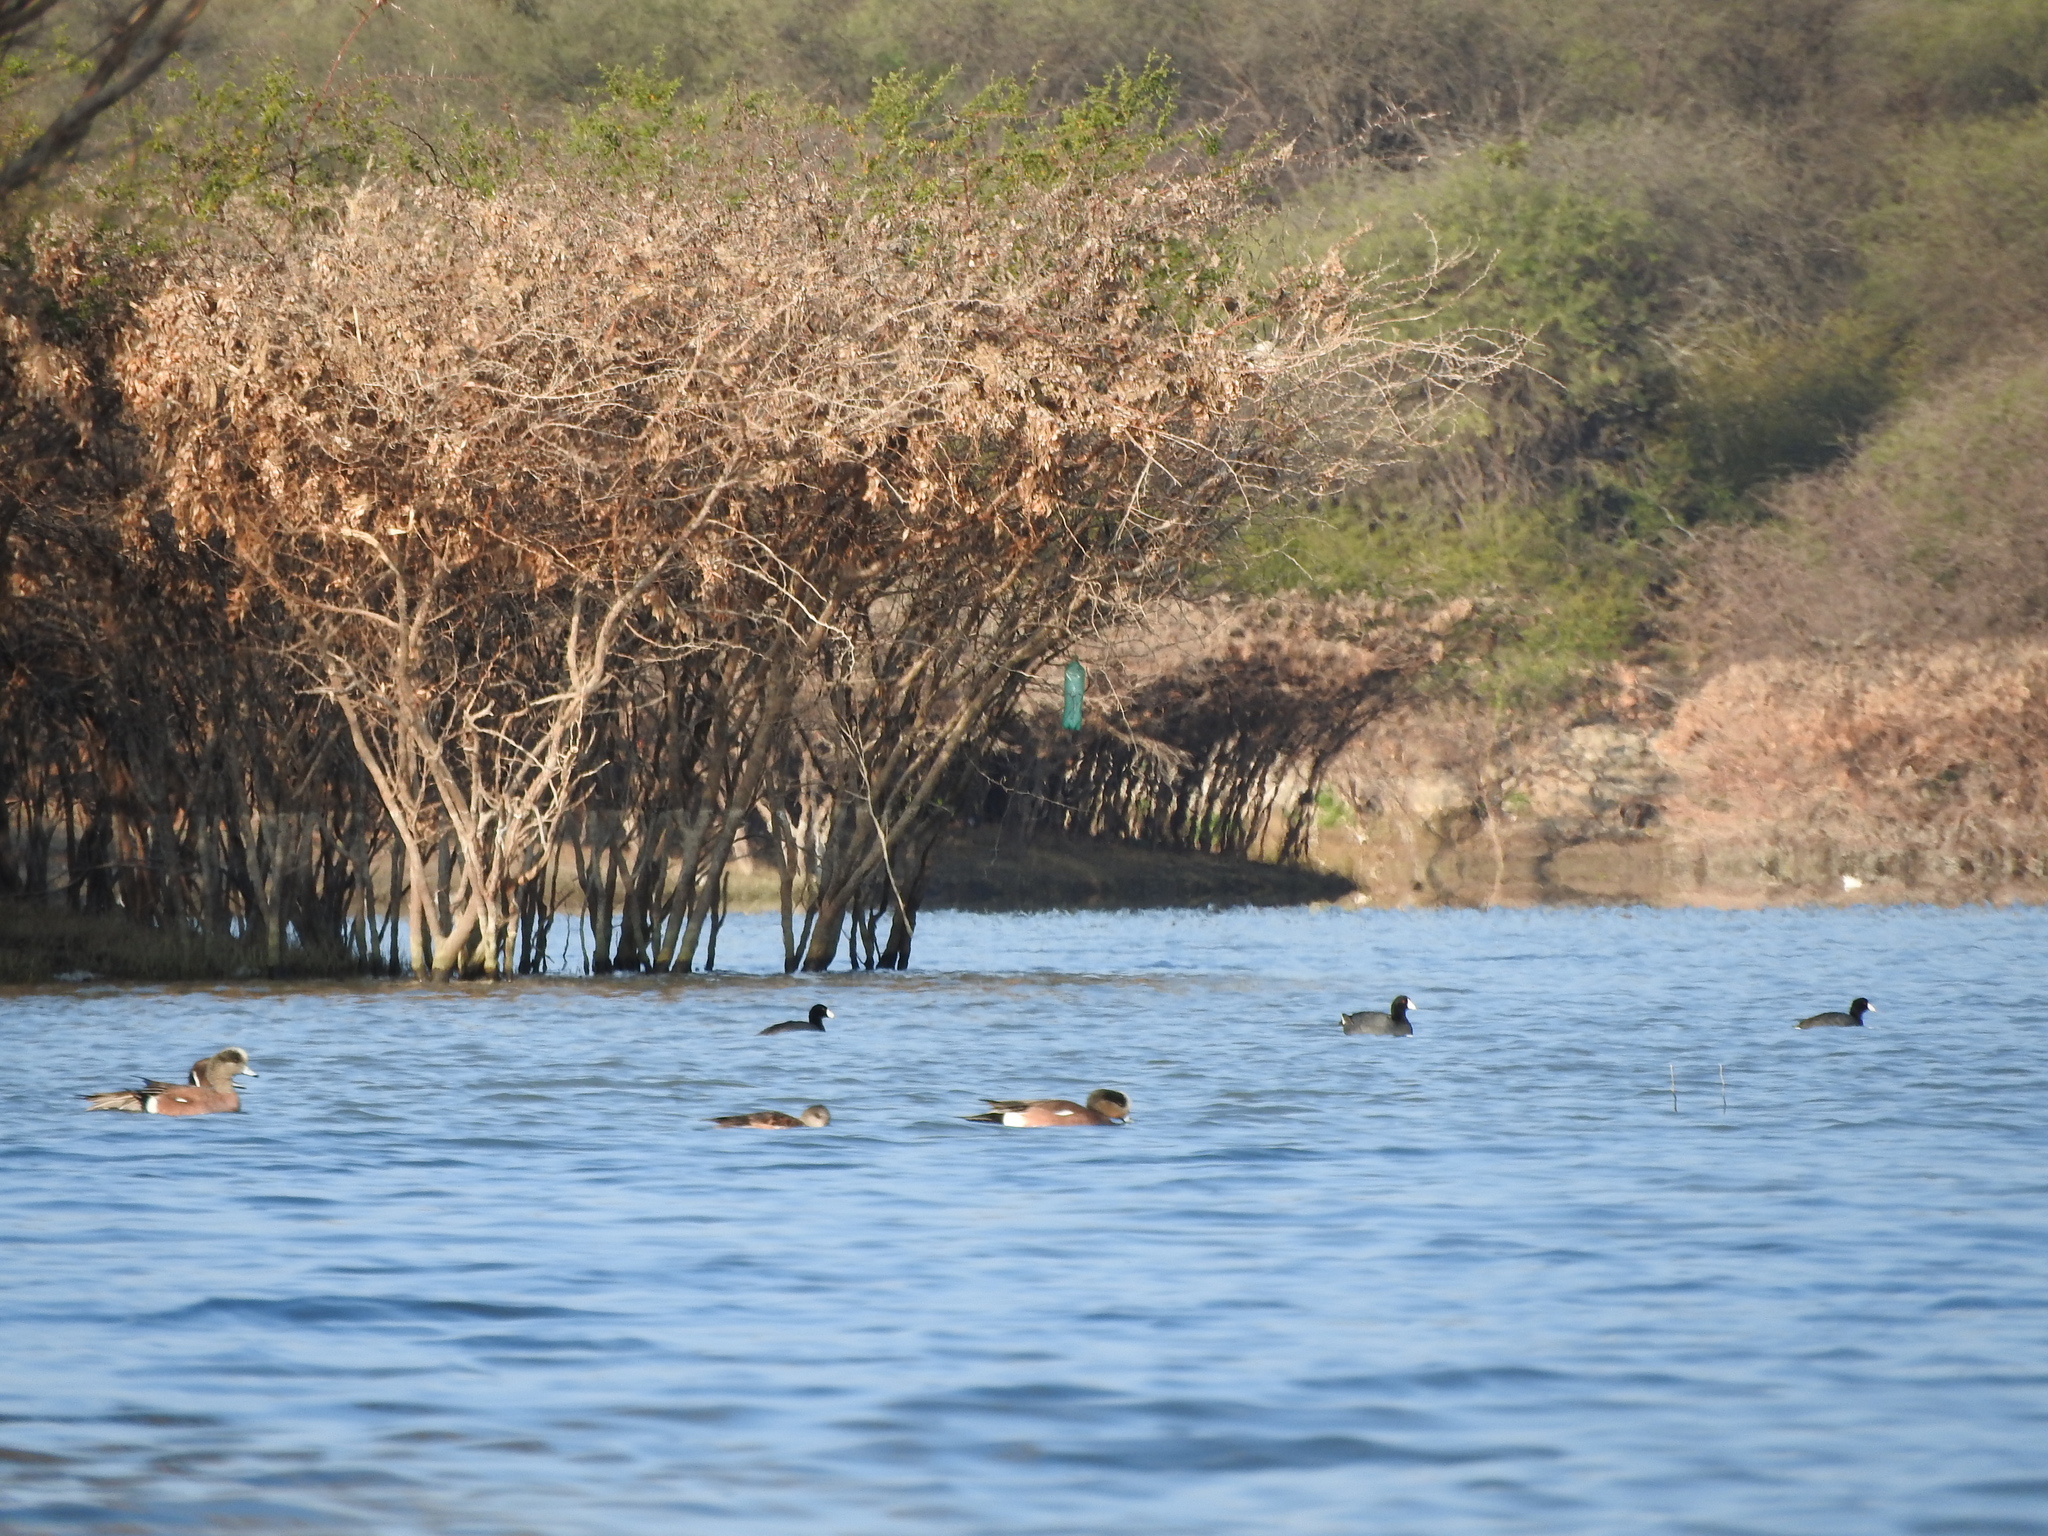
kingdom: Animalia
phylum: Chordata
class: Aves
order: Anseriformes
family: Anatidae
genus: Mareca
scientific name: Mareca americana
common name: American wigeon
